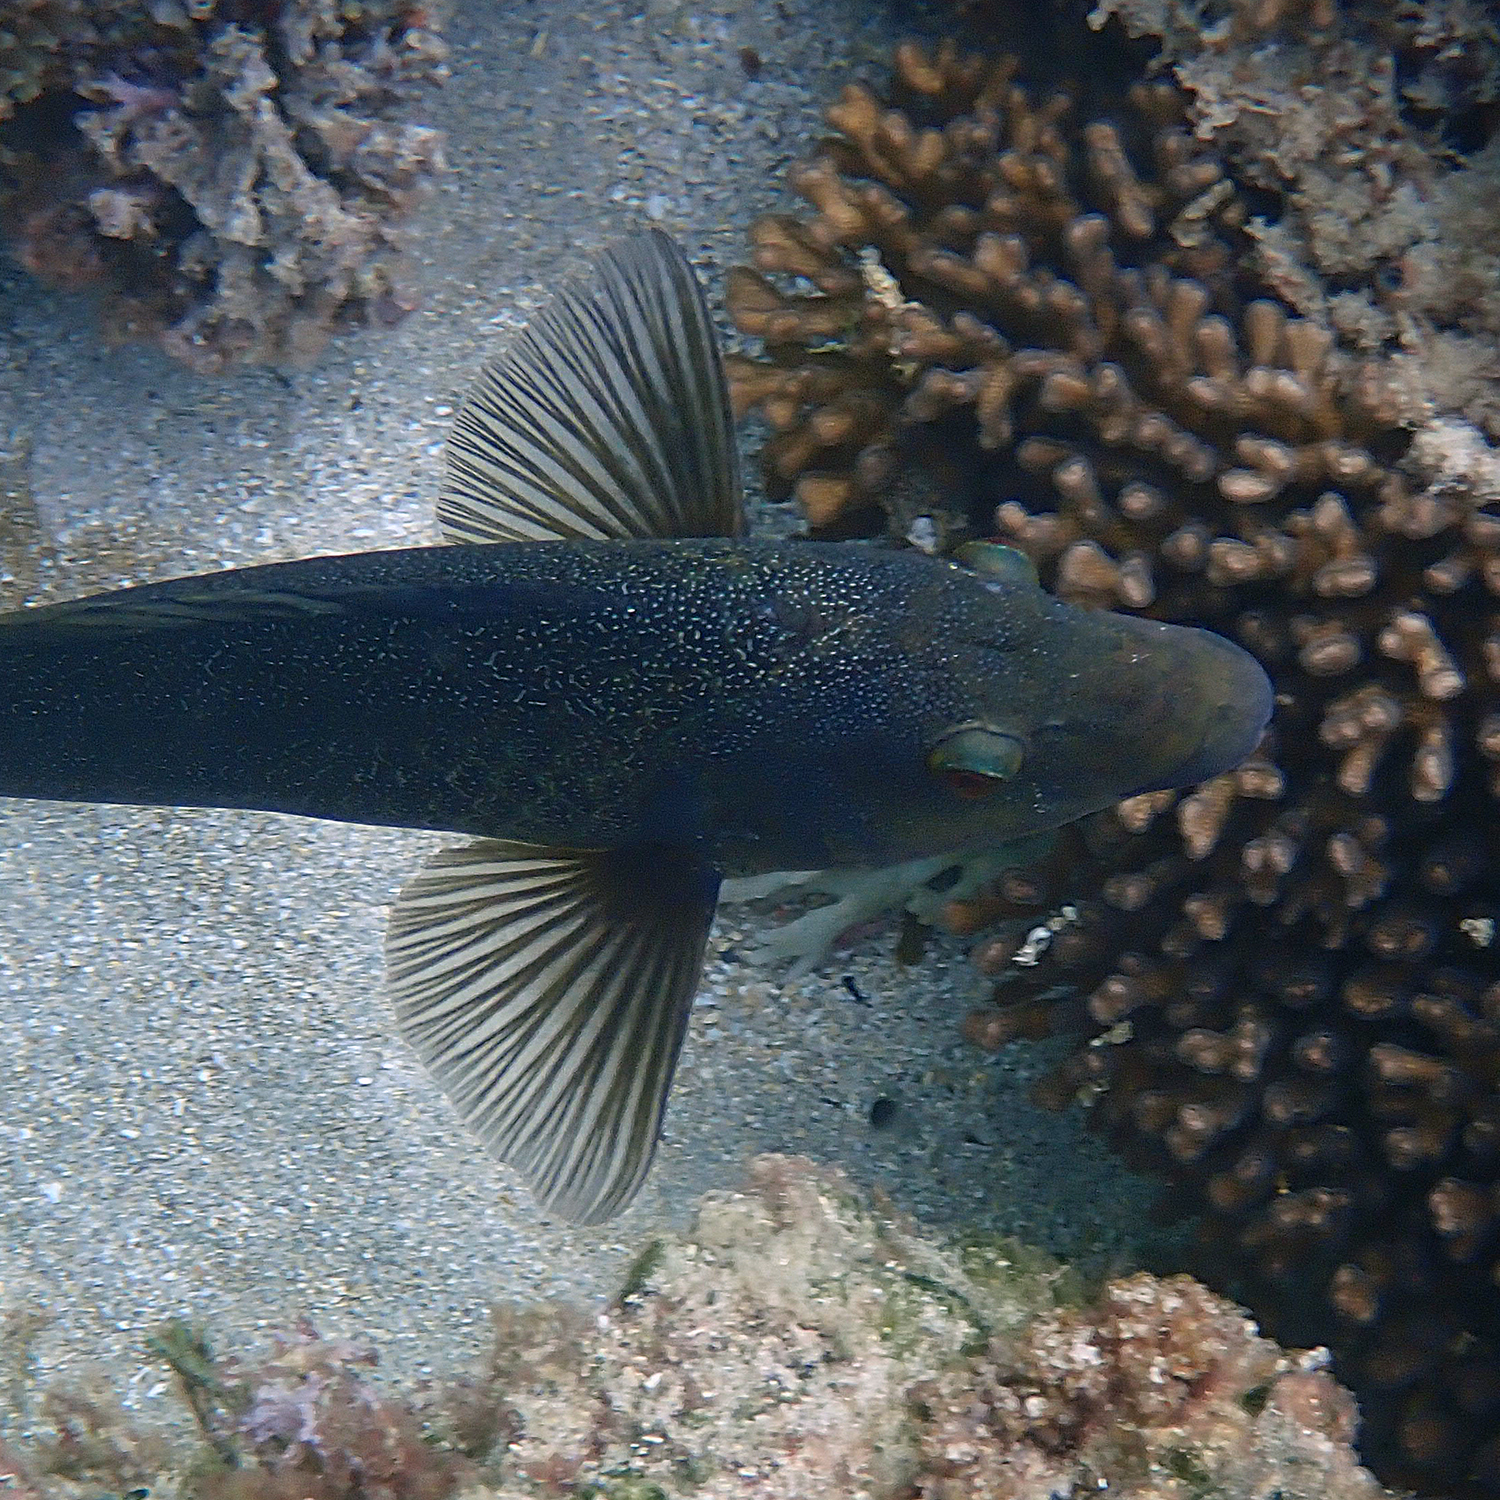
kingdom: Animalia
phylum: Chordata
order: Perciformes
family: Labridae
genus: Notolabrus
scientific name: Notolabrus inscriptus
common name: Green wrasse
